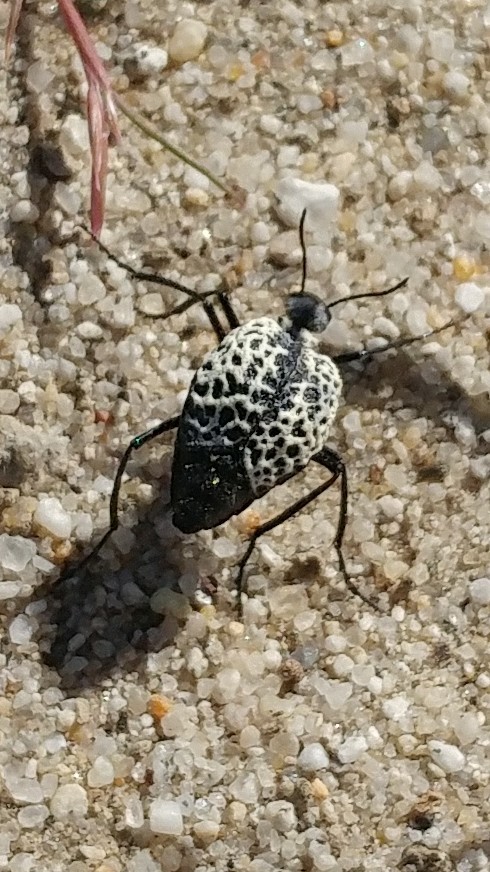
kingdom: Animalia
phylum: Arthropoda
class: Insecta
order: Coleoptera
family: Meloidae
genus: Cysteodemus
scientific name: Cysteodemus armatus
